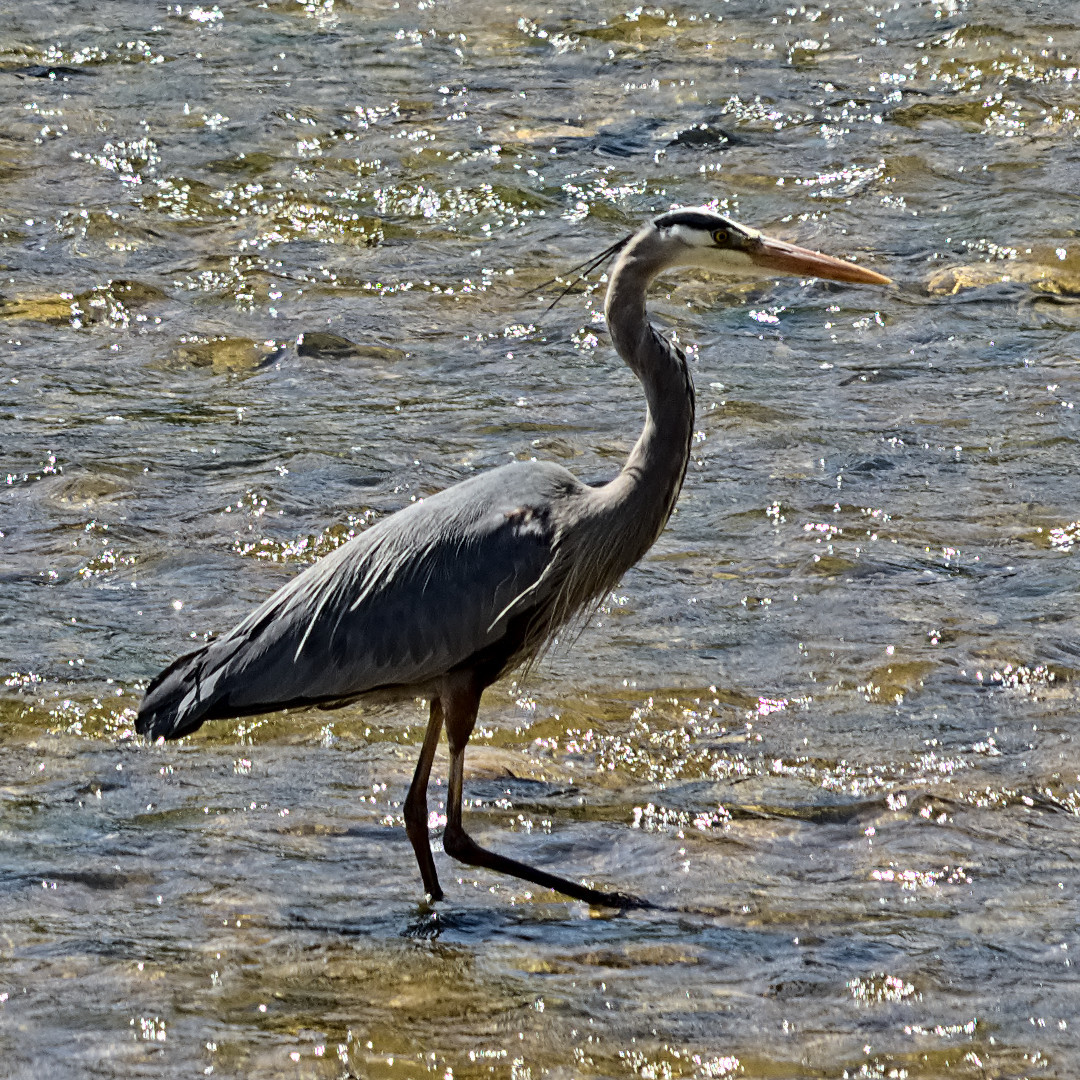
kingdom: Animalia
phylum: Chordata
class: Aves
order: Pelecaniformes
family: Ardeidae
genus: Ardea
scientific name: Ardea herodias
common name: Great blue heron
